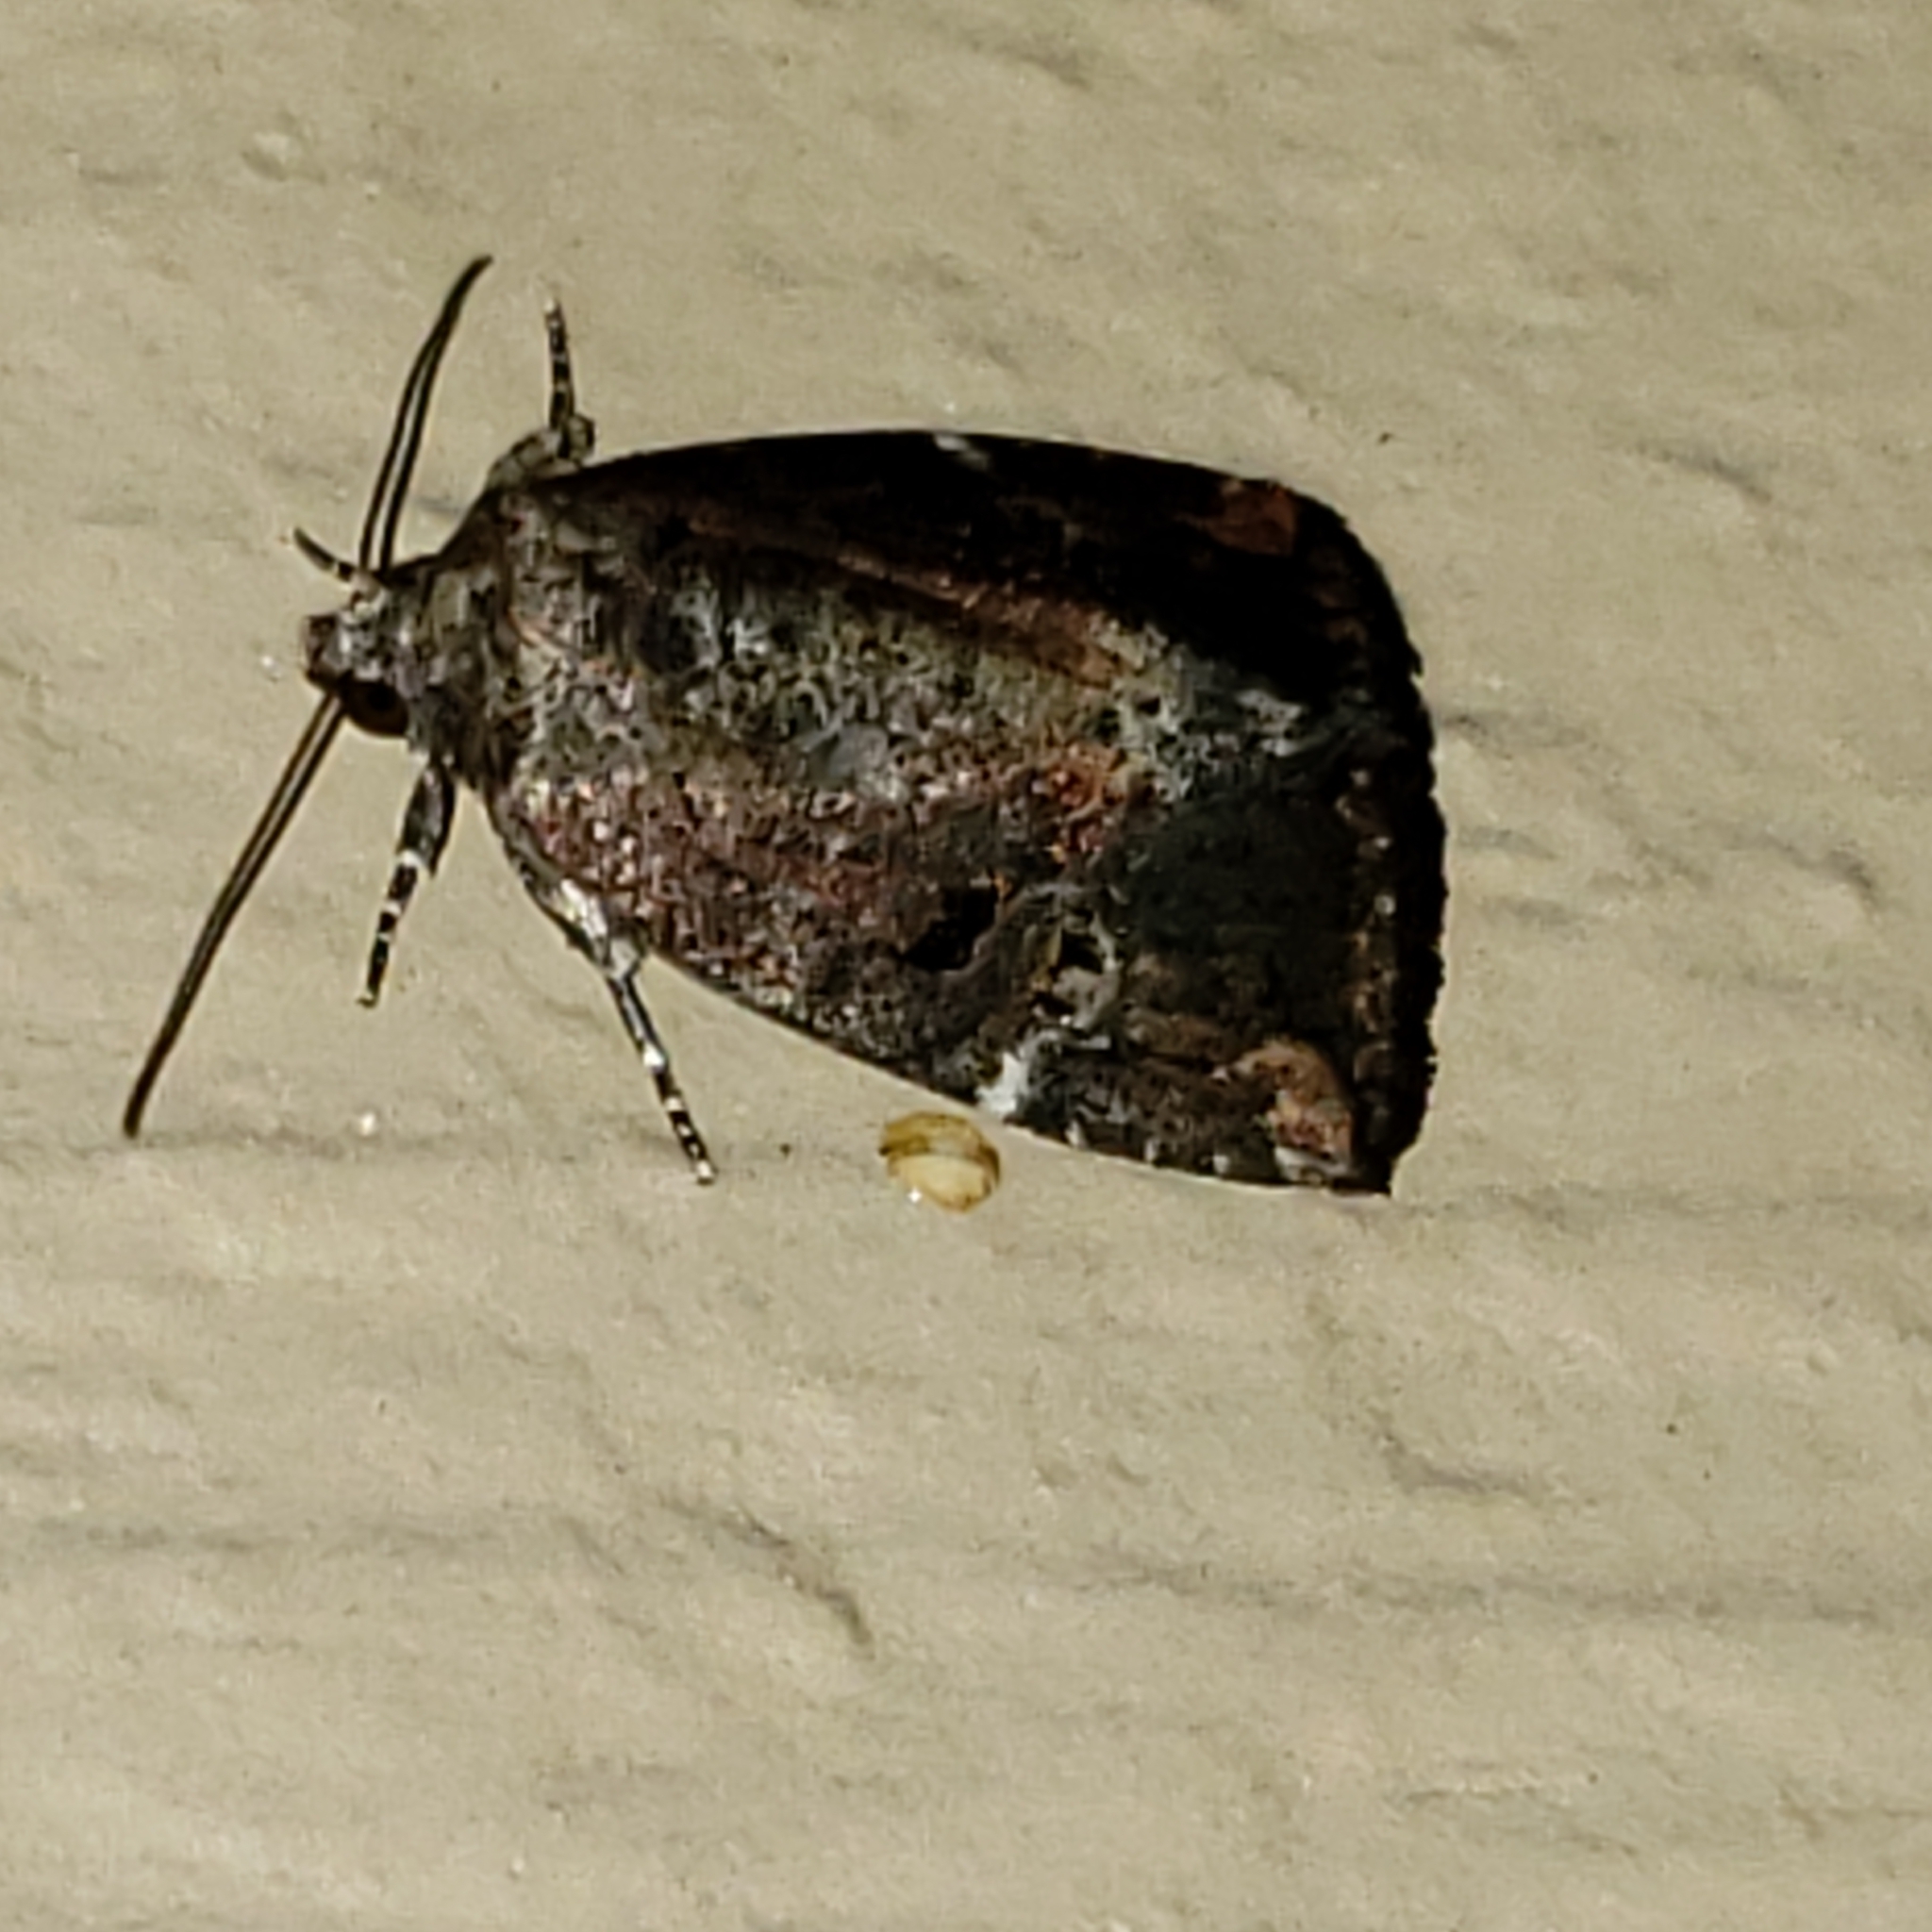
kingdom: Animalia
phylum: Arthropoda
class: Insecta
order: Lepidoptera
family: Noctuidae
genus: Elaphria
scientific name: Elaphria versicolor
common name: Fir harlequin
